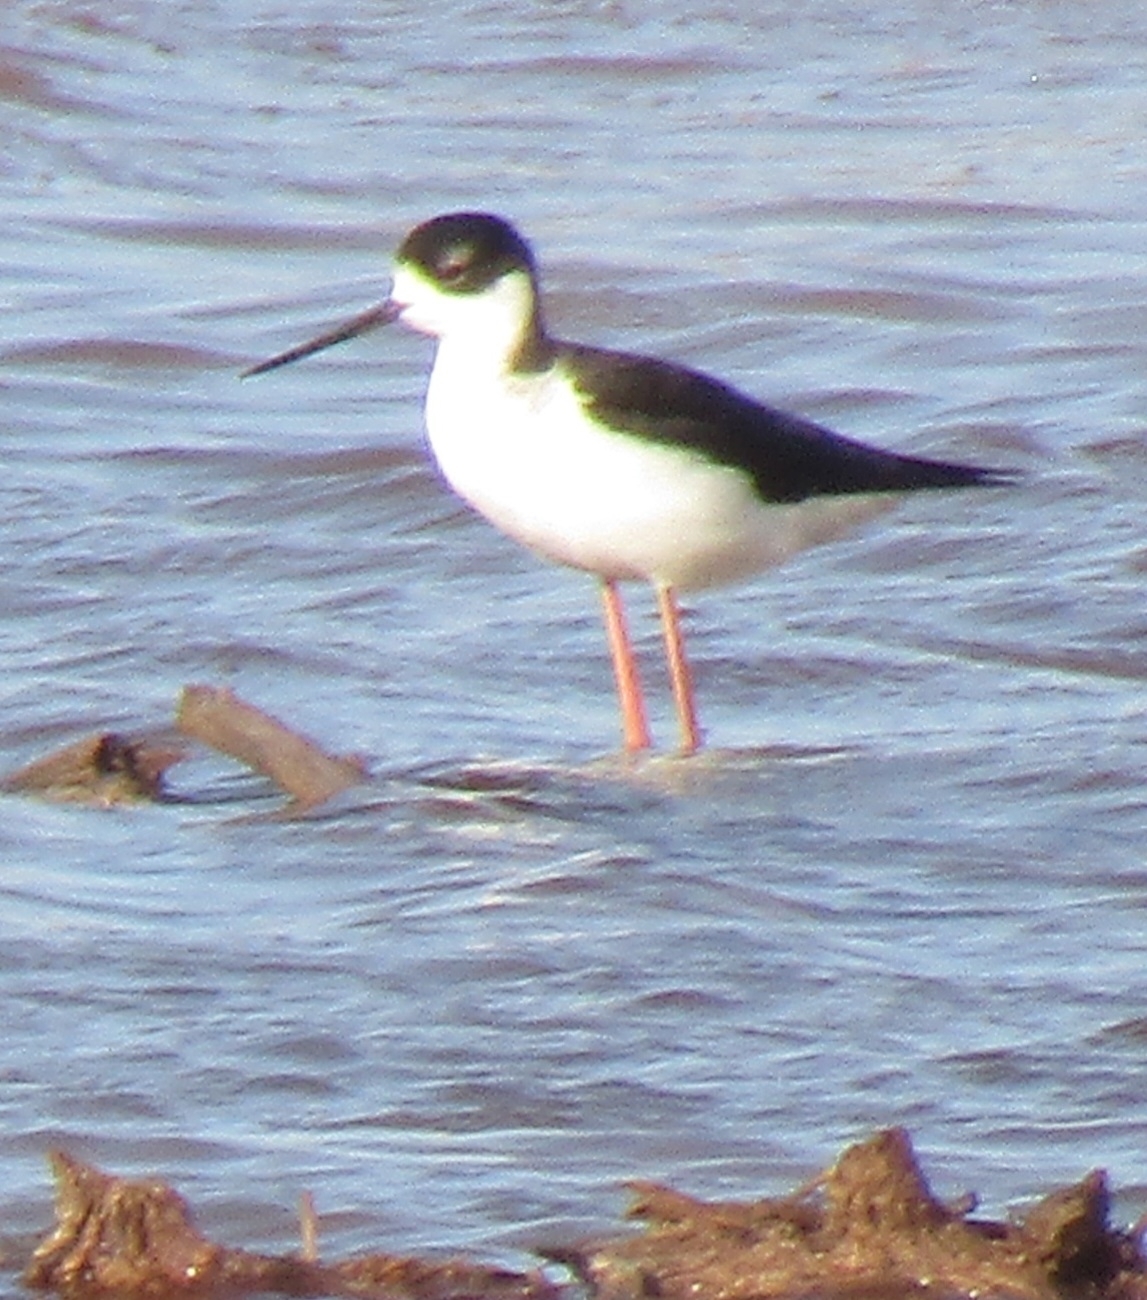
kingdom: Animalia
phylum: Chordata
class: Aves
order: Charadriiformes
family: Recurvirostridae
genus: Himantopus
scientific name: Himantopus mexicanus
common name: Black-necked stilt
